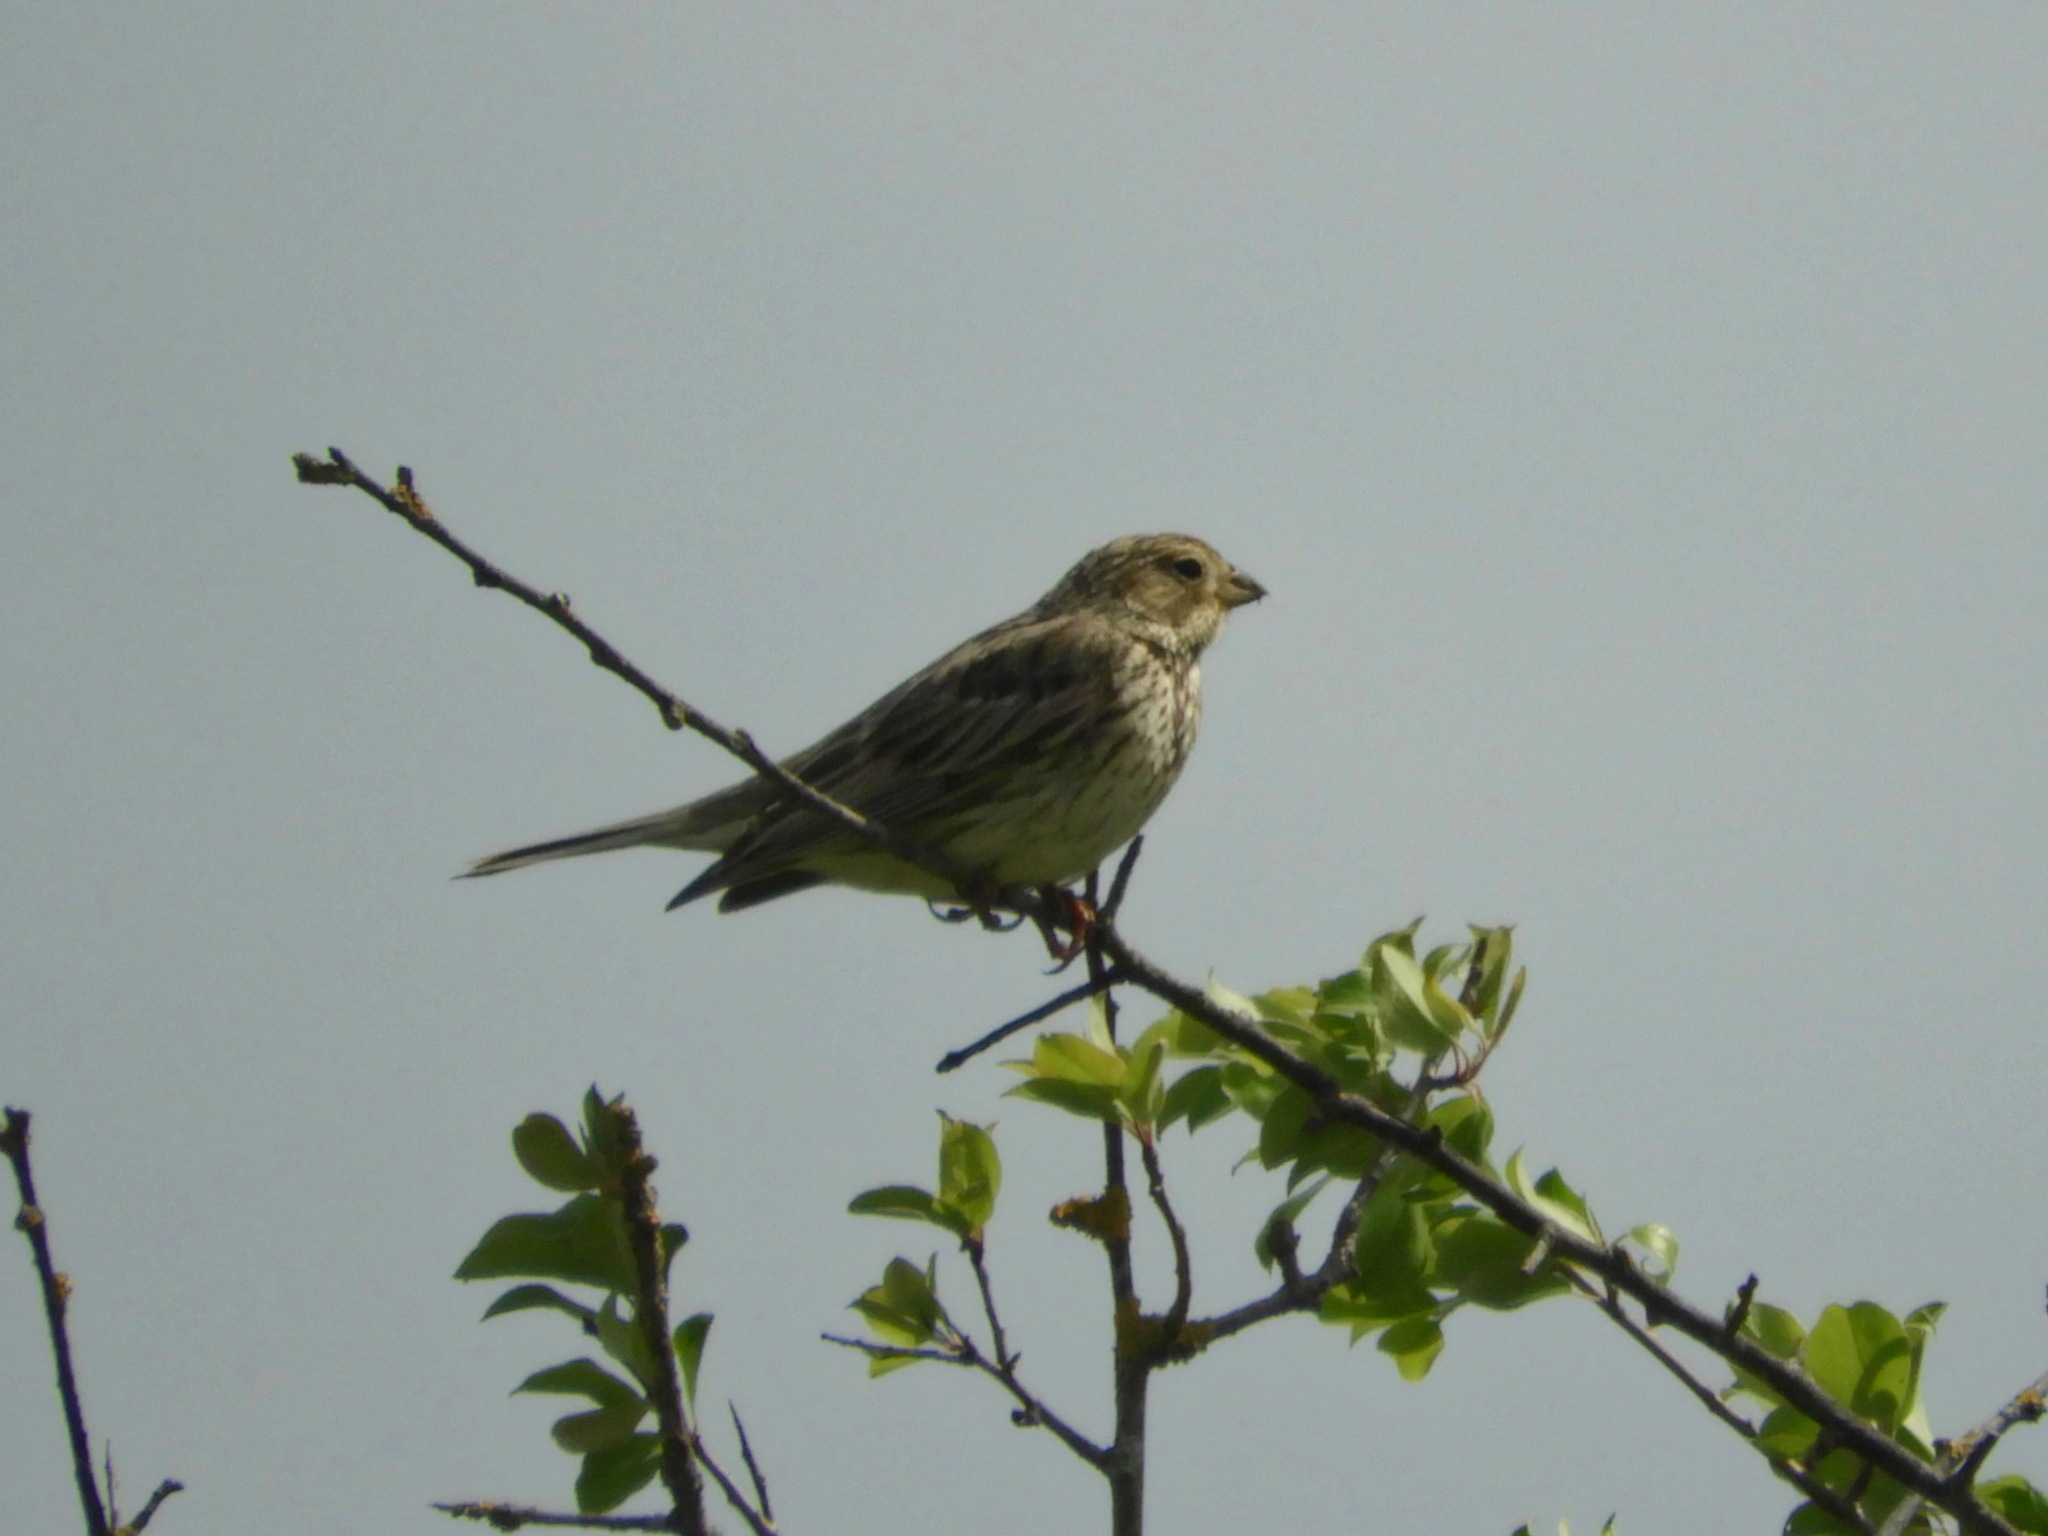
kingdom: Animalia
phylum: Chordata
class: Aves
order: Passeriformes
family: Emberizidae
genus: Emberiza
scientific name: Emberiza calandra
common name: Corn bunting
